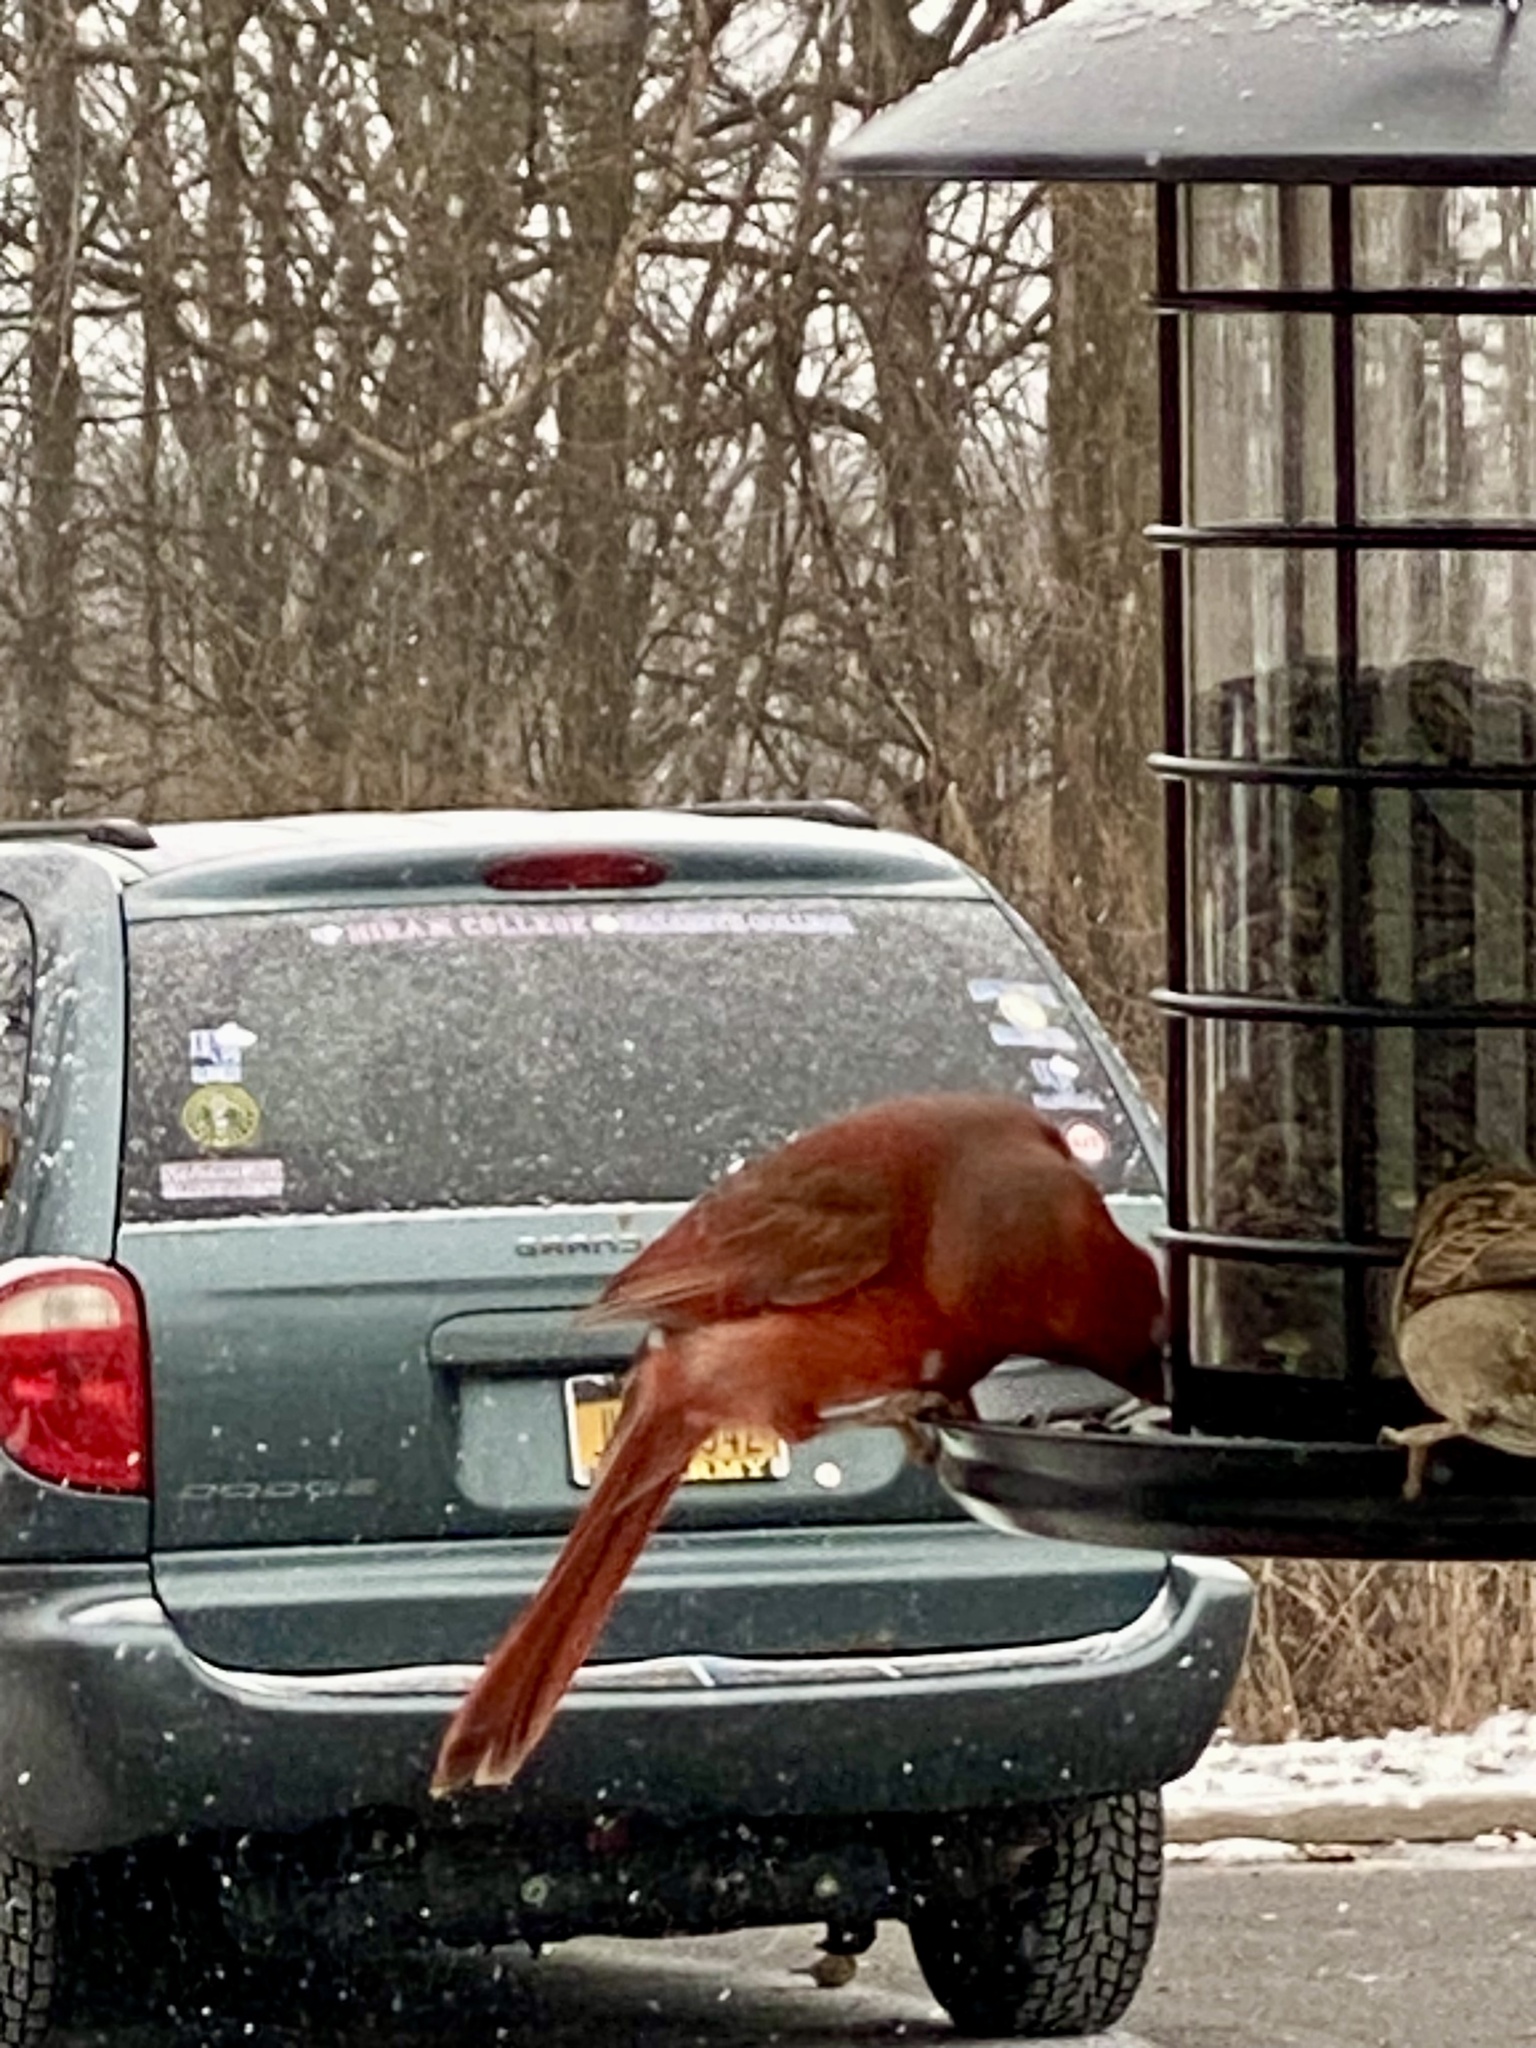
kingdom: Animalia
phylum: Chordata
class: Aves
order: Passeriformes
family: Cardinalidae
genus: Cardinalis
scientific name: Cardinalis cardinalis
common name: Northern cardinal
